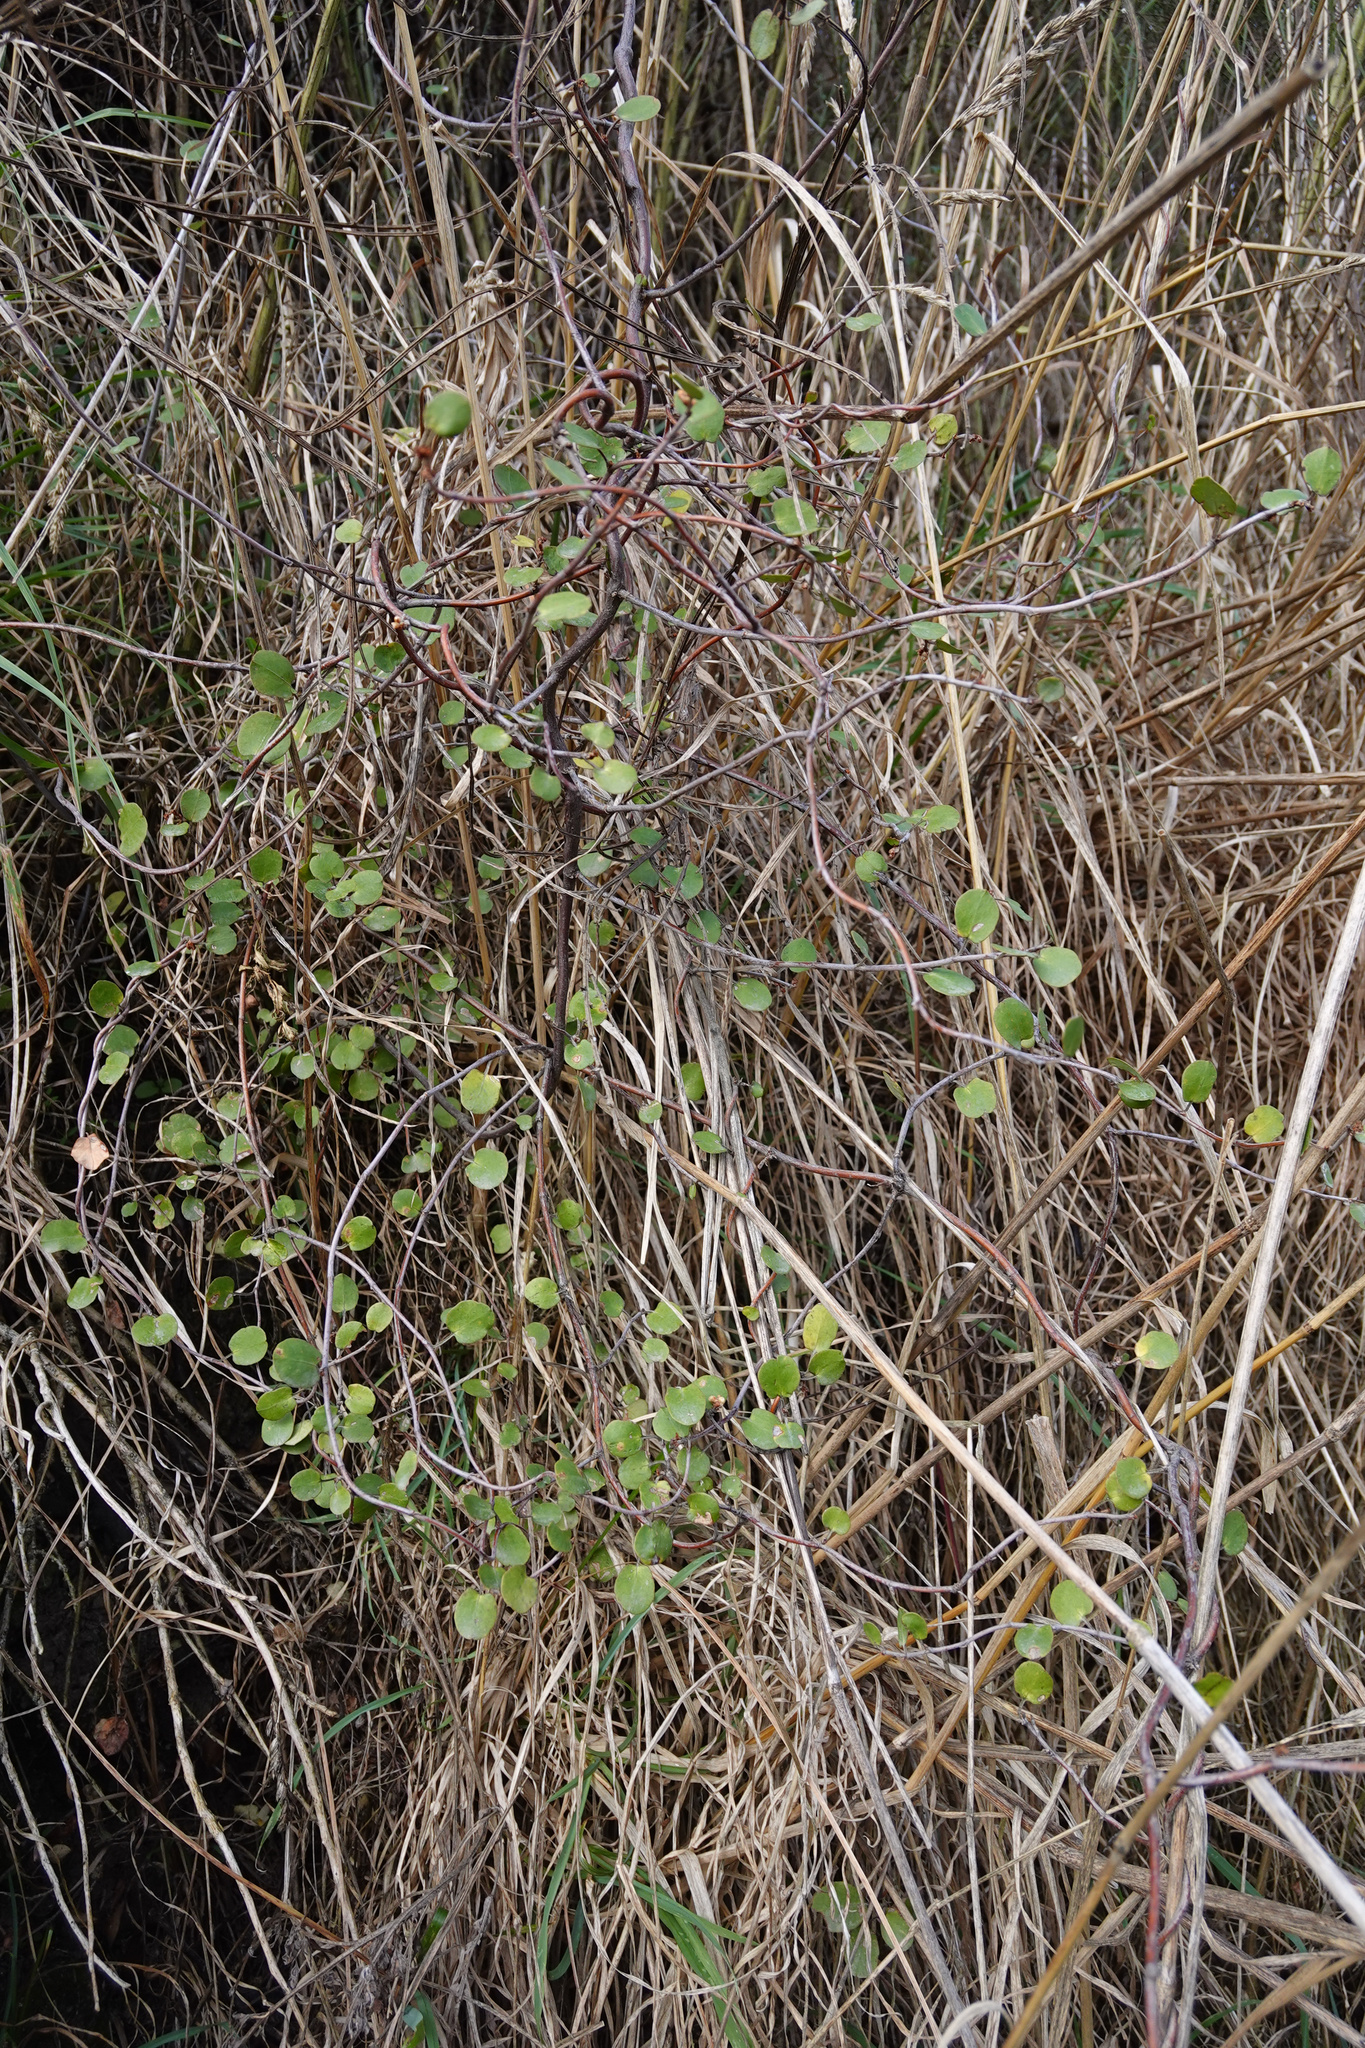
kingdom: Plantae
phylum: Tracheophyta
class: Magnoliopsida
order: Caryophyllales
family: Polygonaceae
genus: Muehlenbeckia
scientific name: Muehlenbeckia complexa
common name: Wireplant
